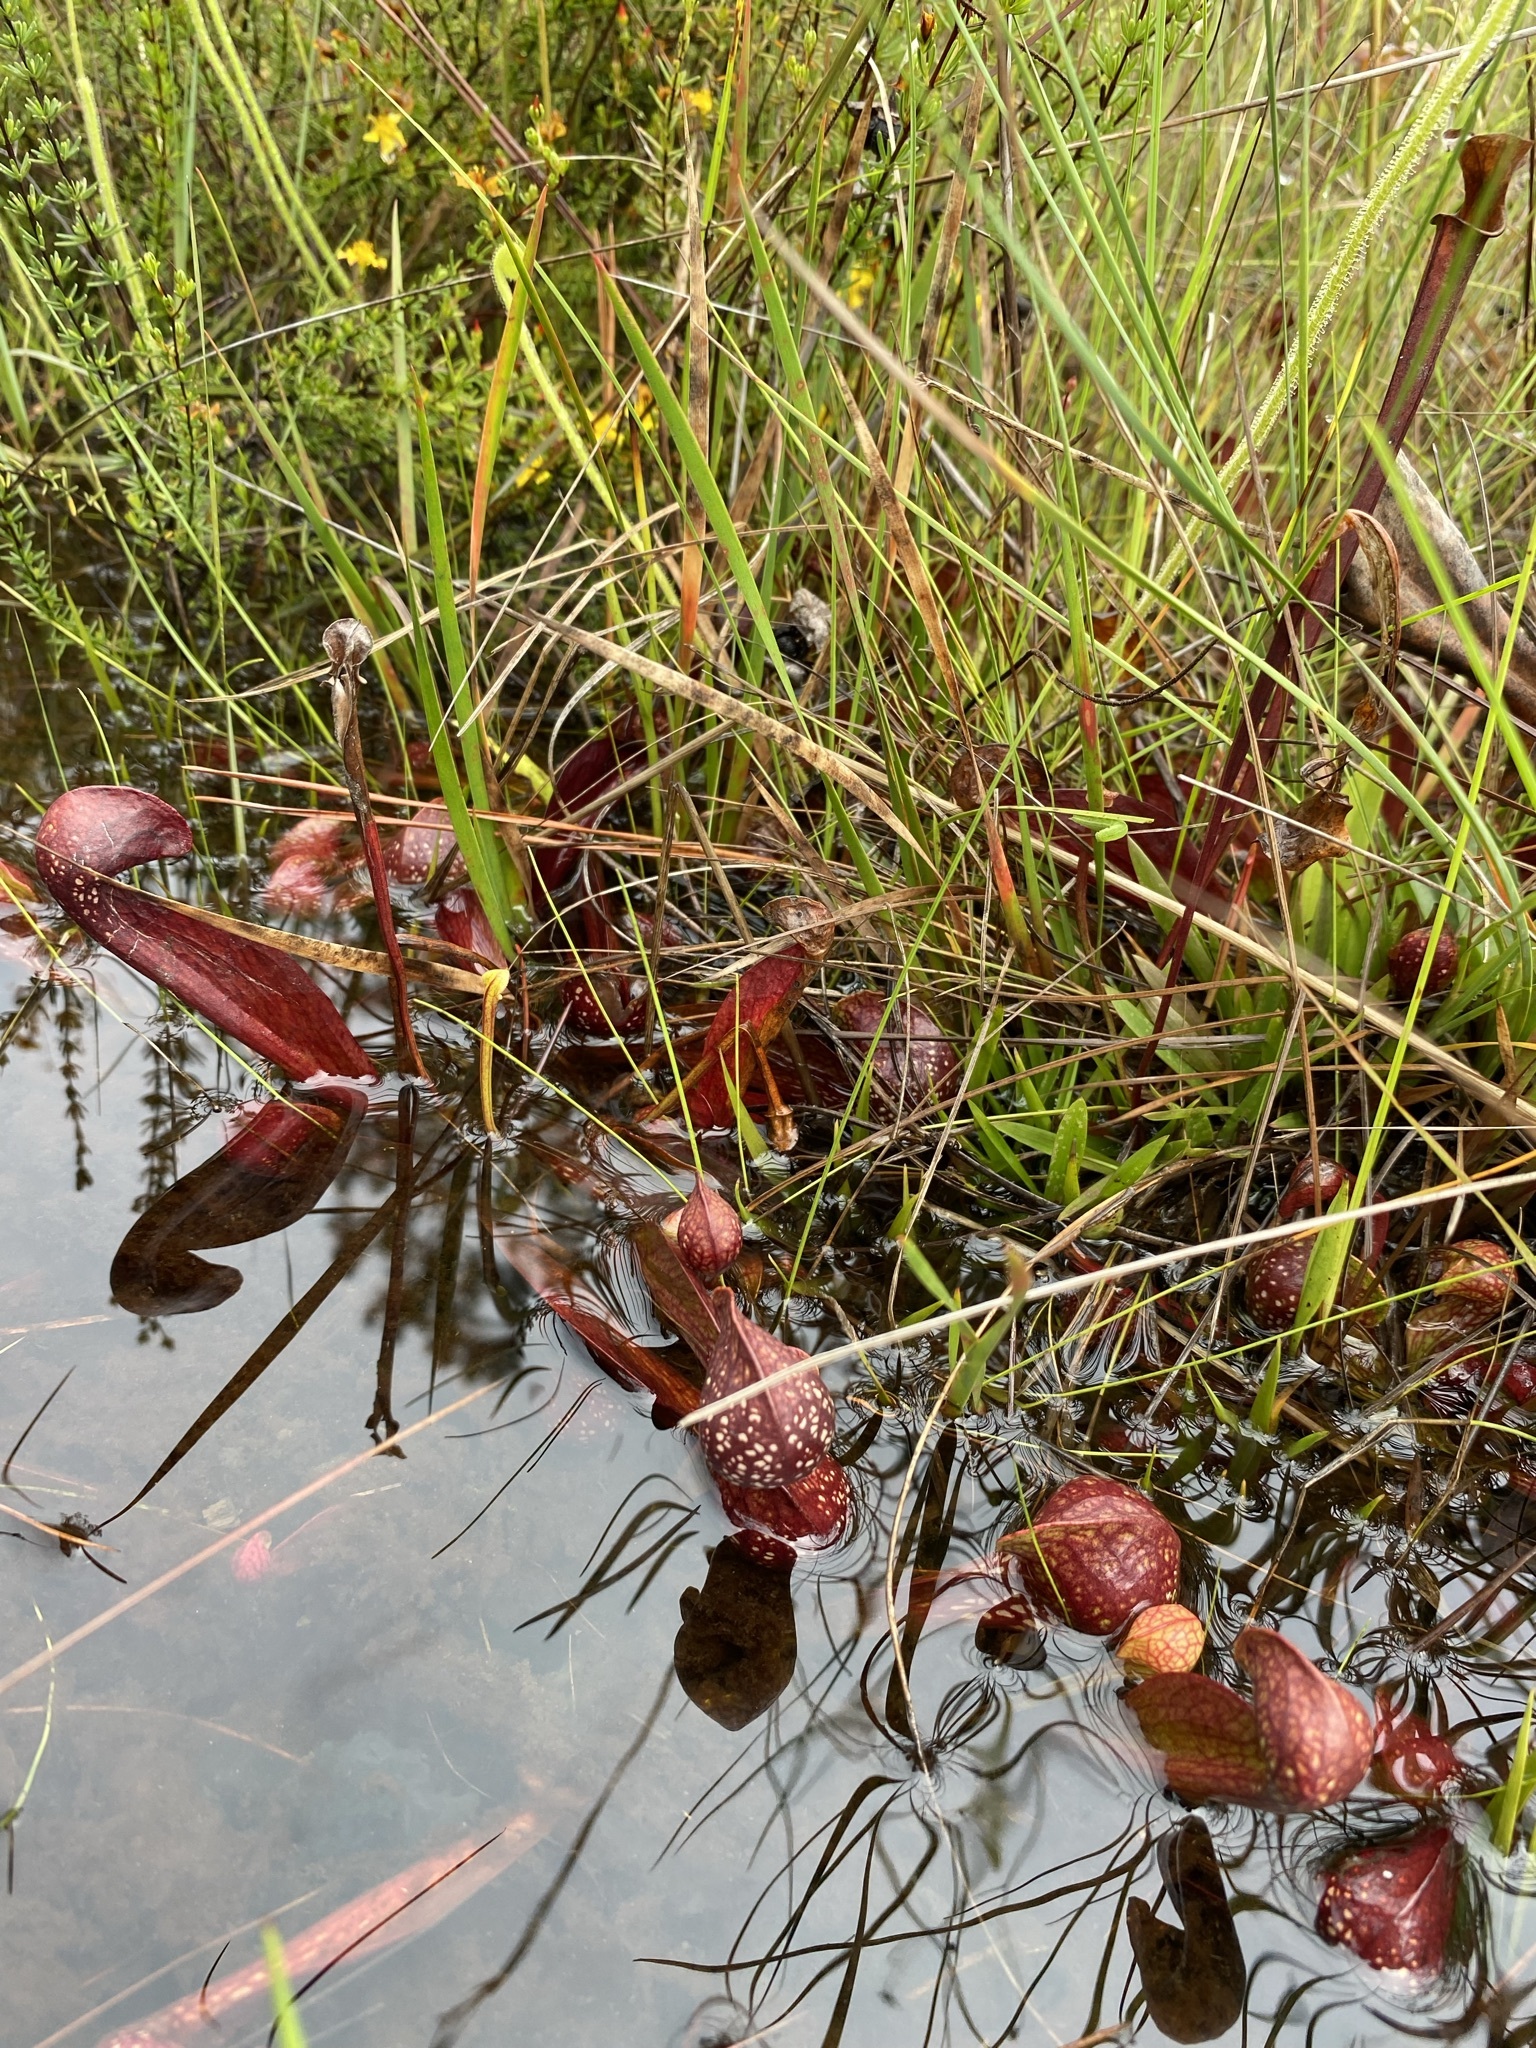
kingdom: Plantae
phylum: Tracheophyta
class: Magnoliopsida
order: Ericales
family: Sarraceniaceae
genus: Sarracenia
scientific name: Sarracenia psittacina
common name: Parrot pitcherplant
